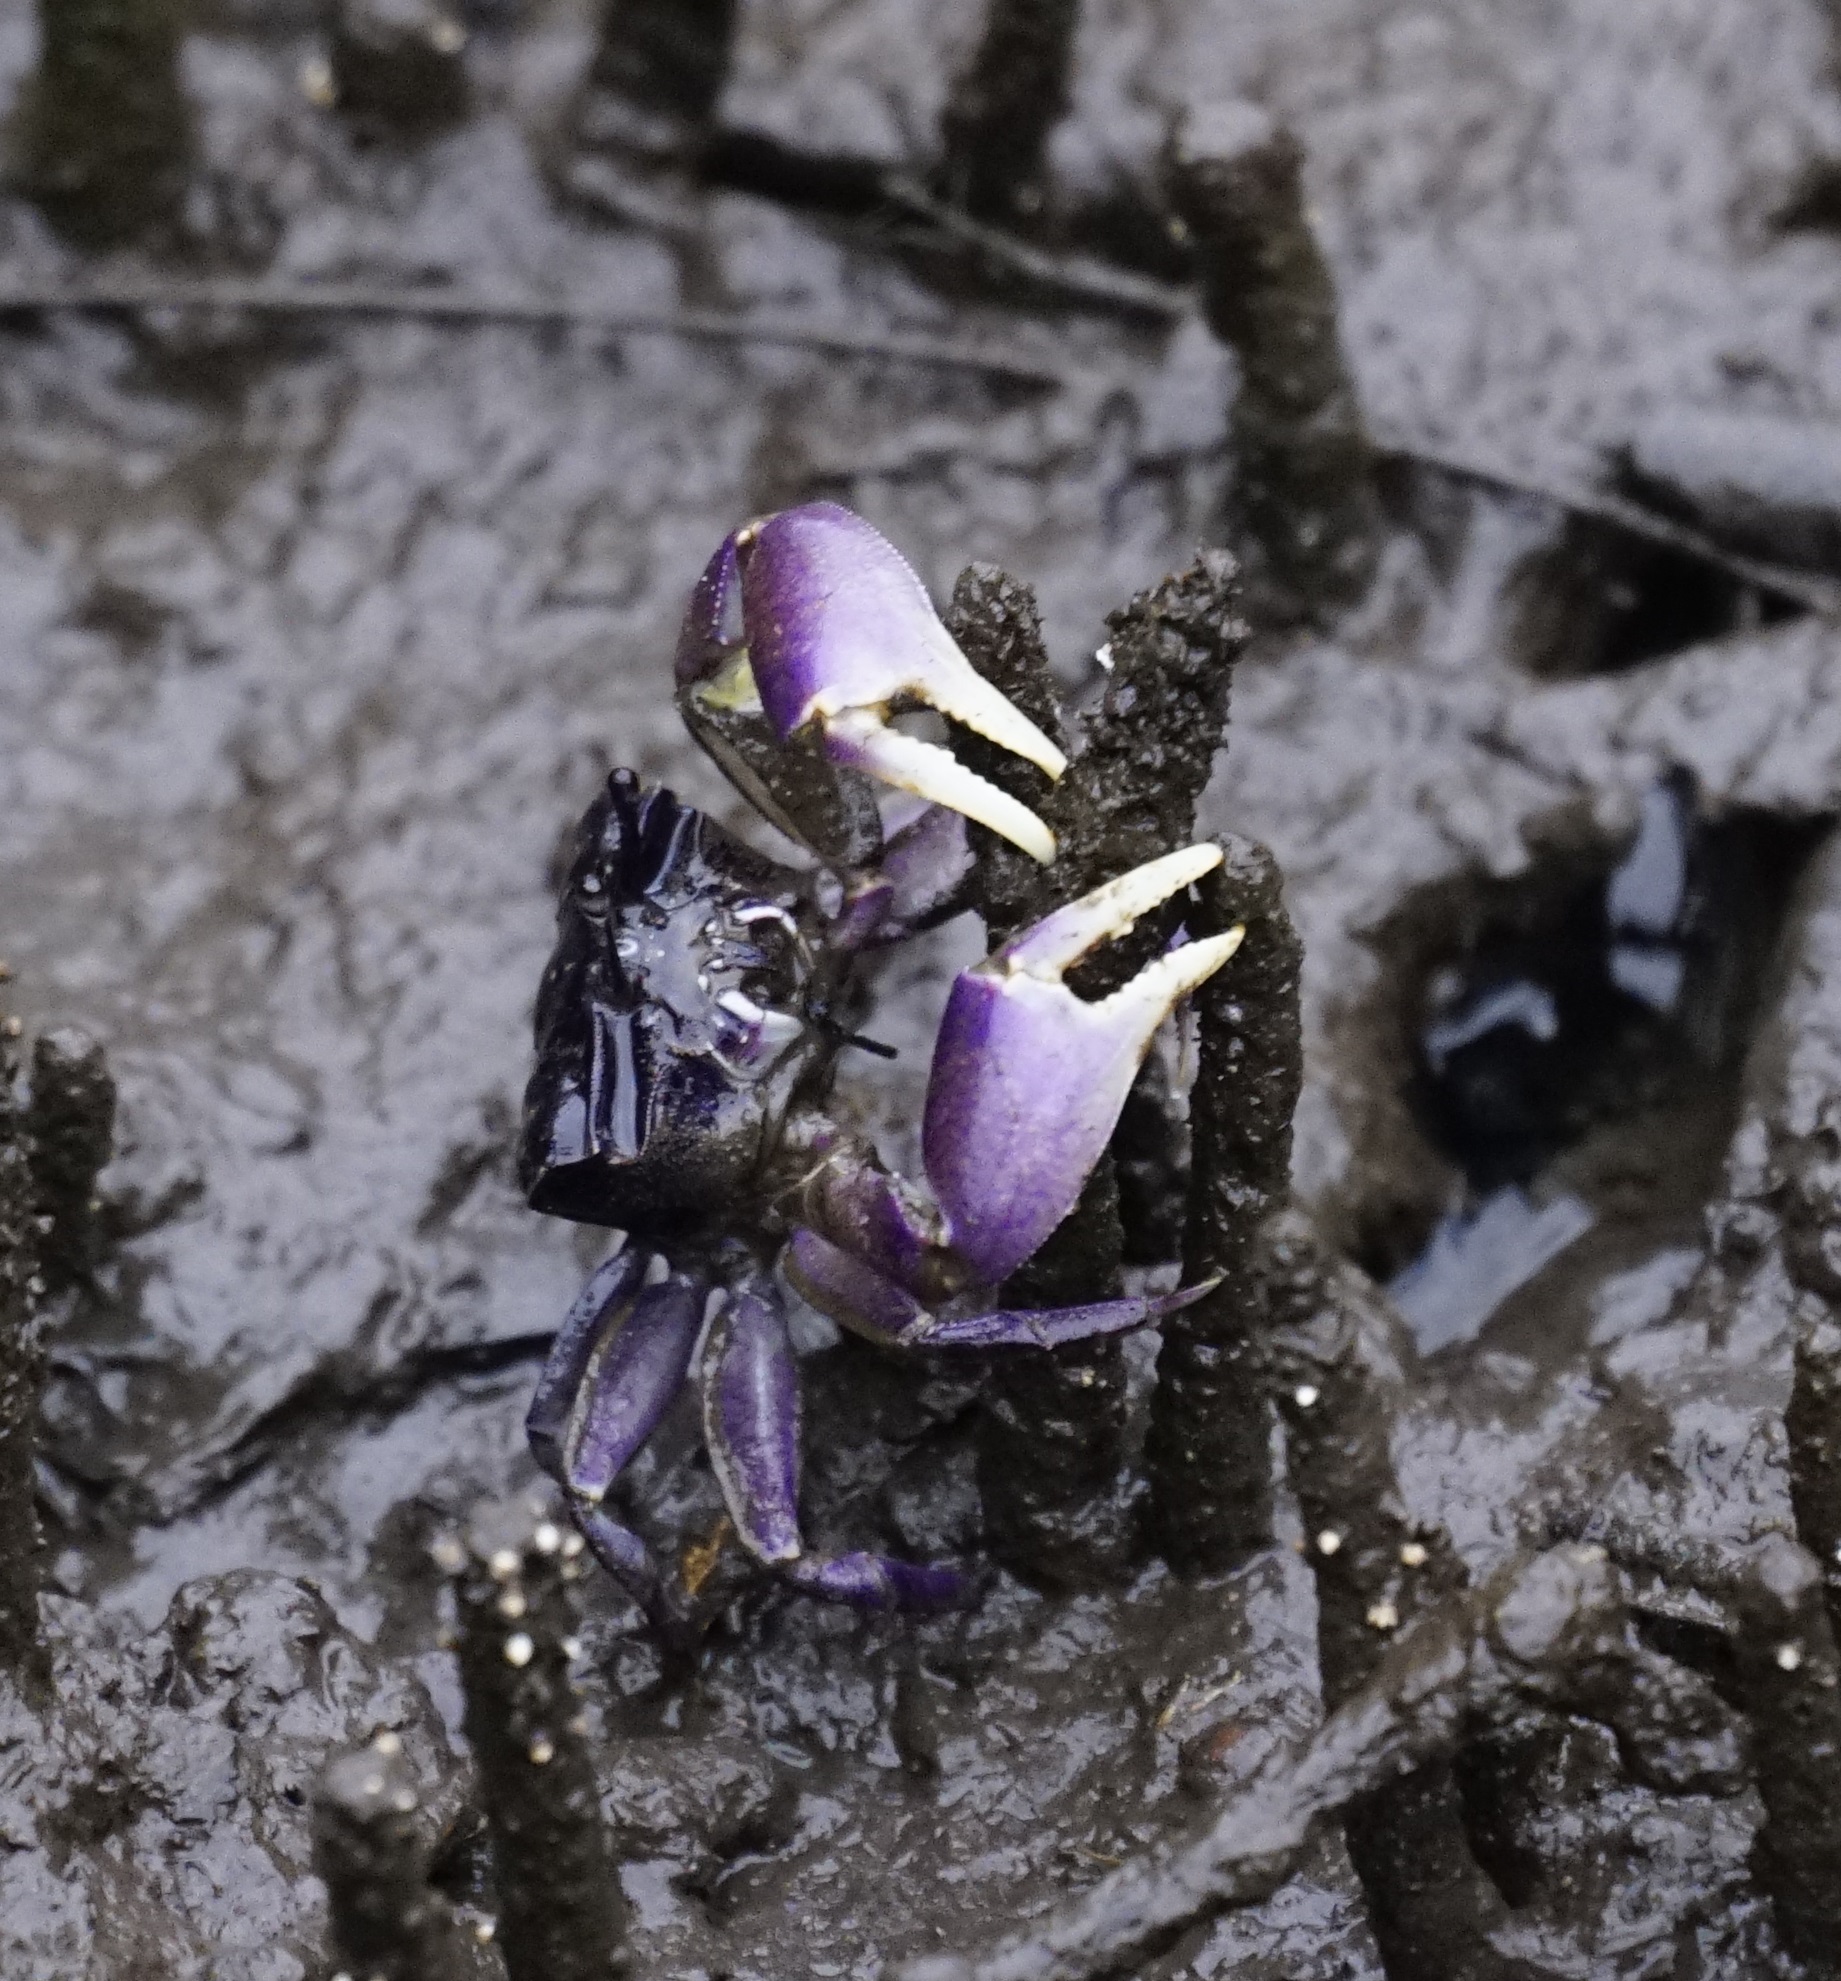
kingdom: Animalia
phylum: Arthropoda
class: Malacostraca
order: Decapoda
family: Heloeciidae
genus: Heloecius
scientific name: Heloecius cordiformis
